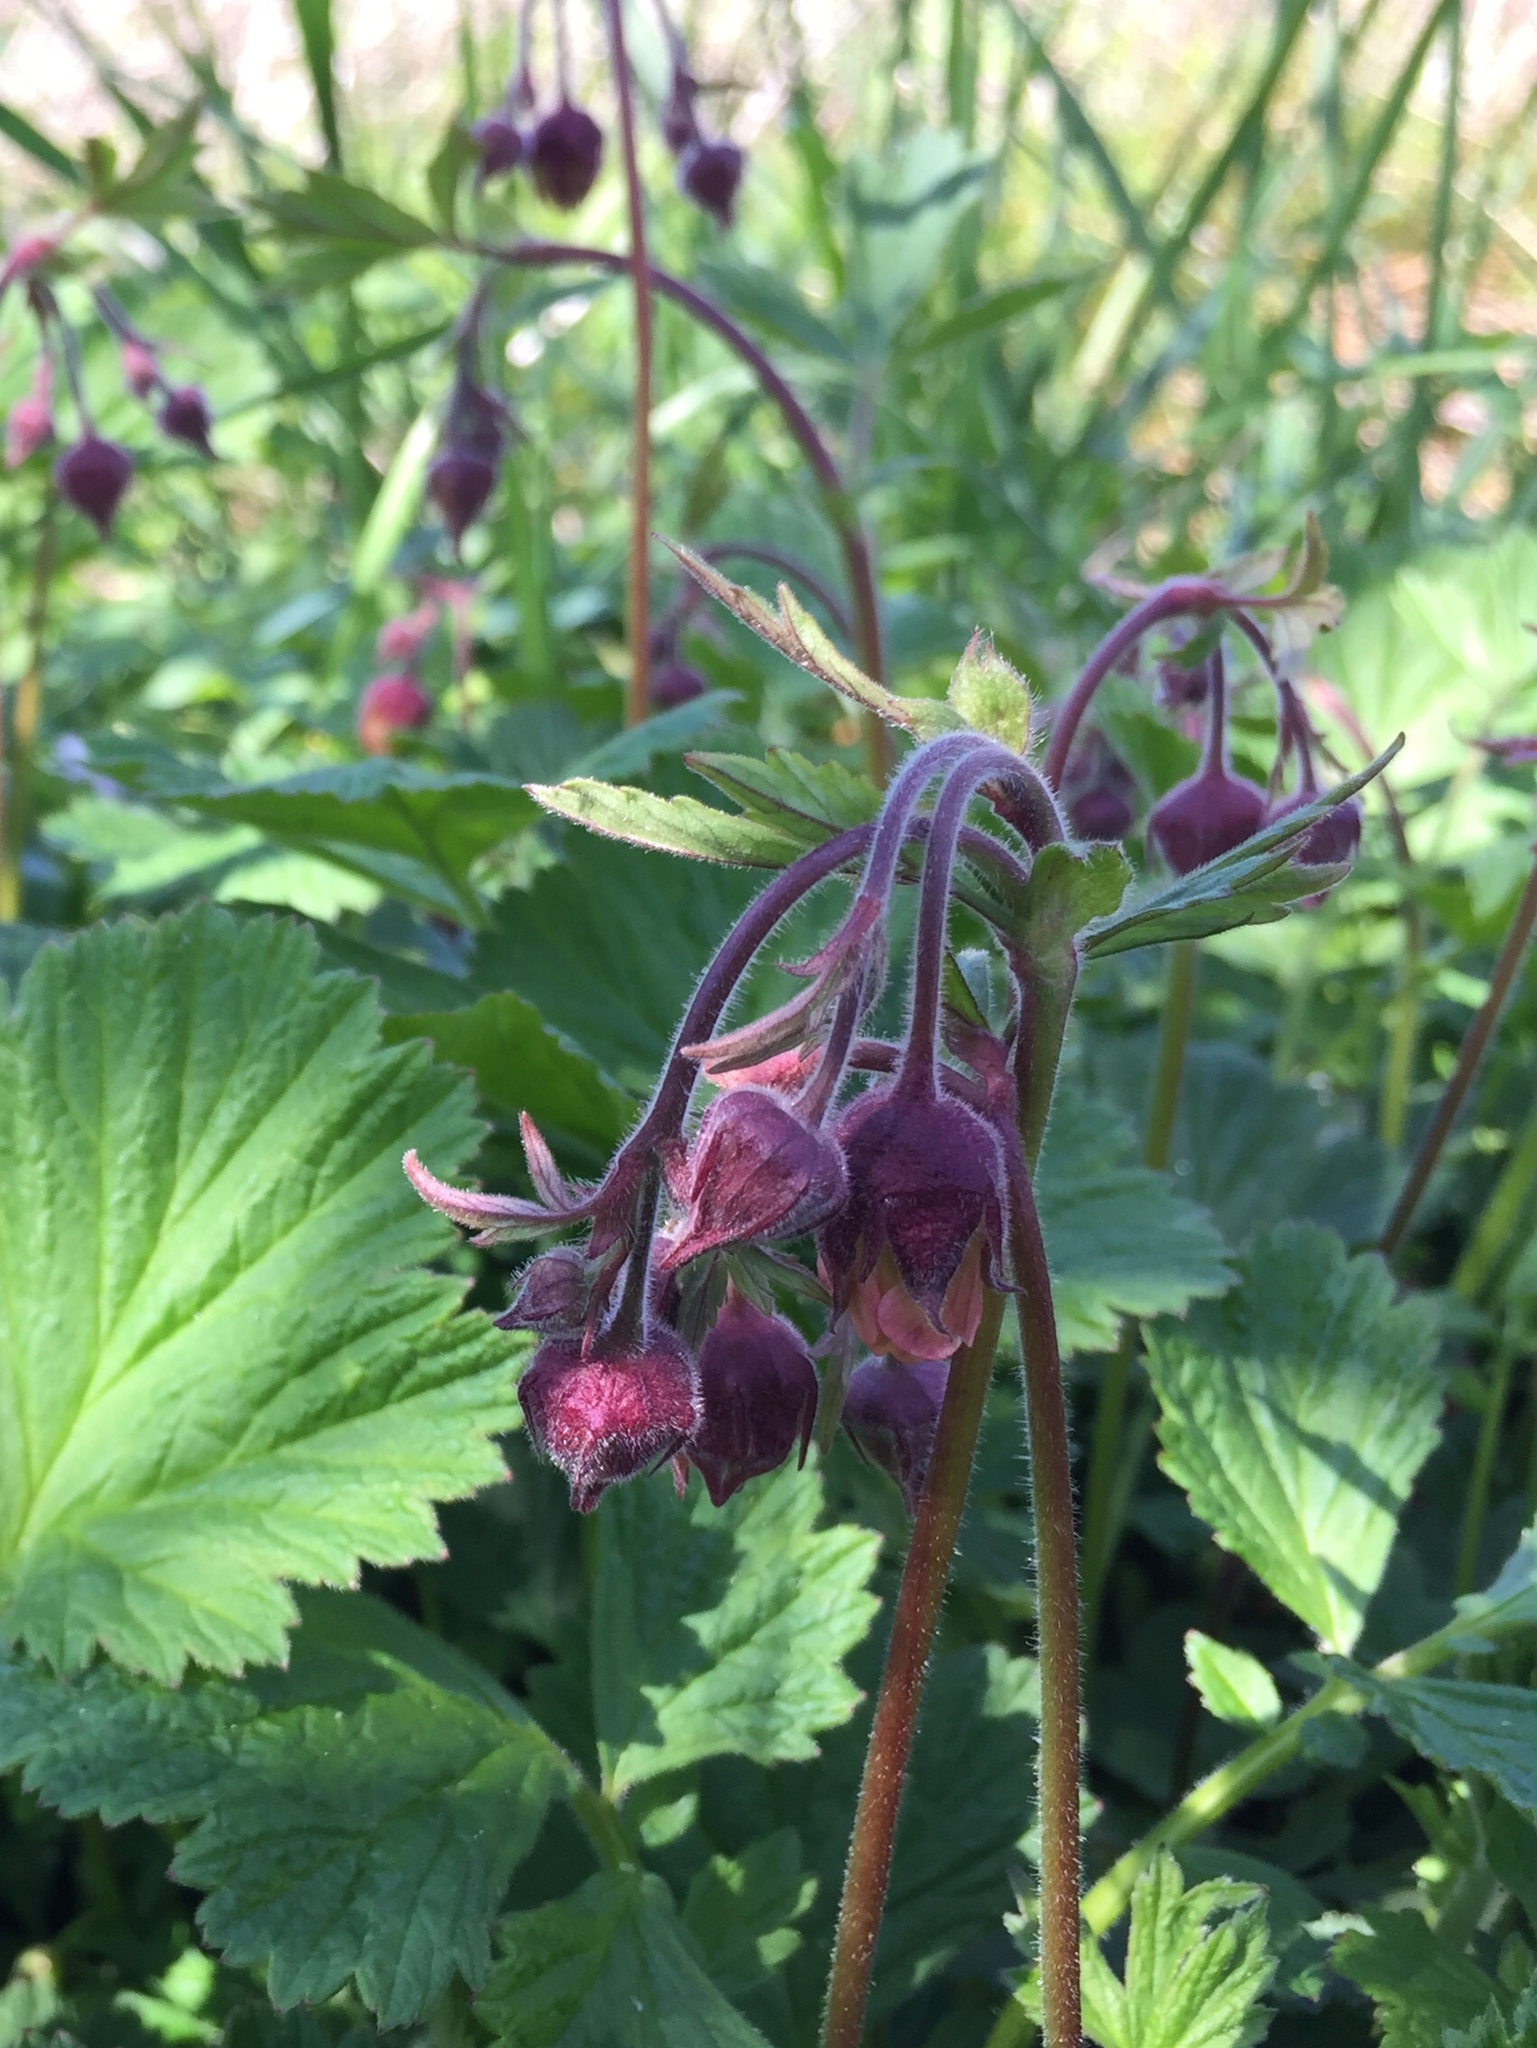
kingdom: Plantae
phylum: Tracheophyta
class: Magnoliopsida
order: Rosales
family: Rosaceae
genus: Geum
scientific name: Geum rivale
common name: Water avens
